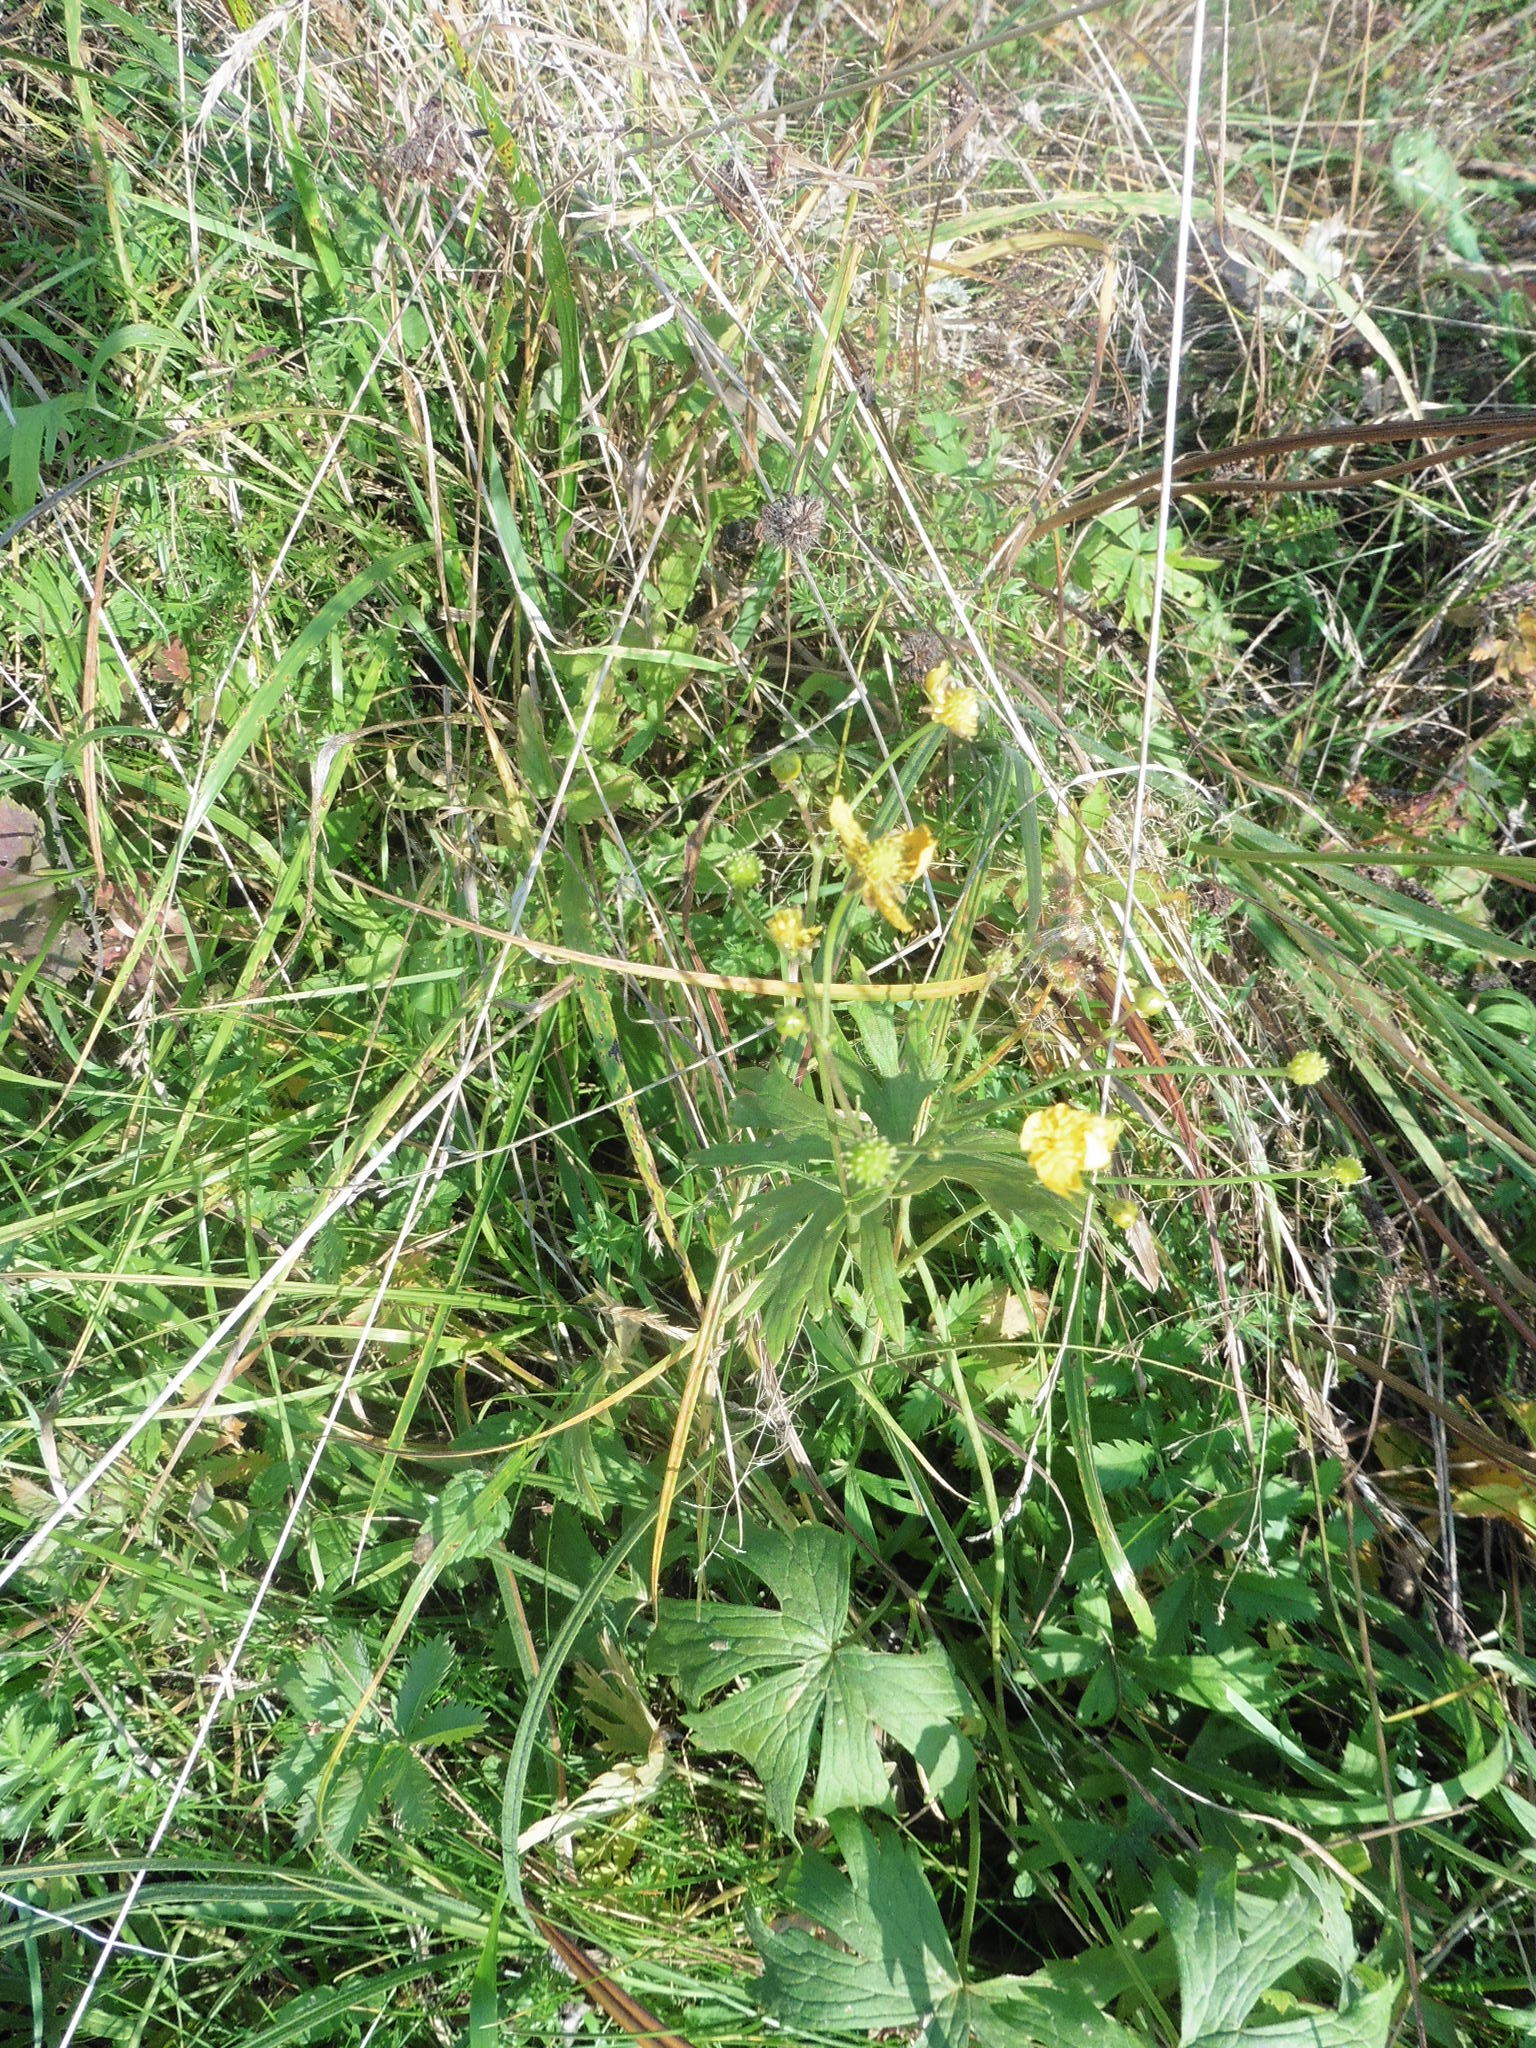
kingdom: Plantae
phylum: Tracheophyta
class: Magnoliopsida
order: Ranunculales
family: Ranunculaceae
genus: Ranunculus
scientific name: Ranunculus acris
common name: Meadow buttercup
